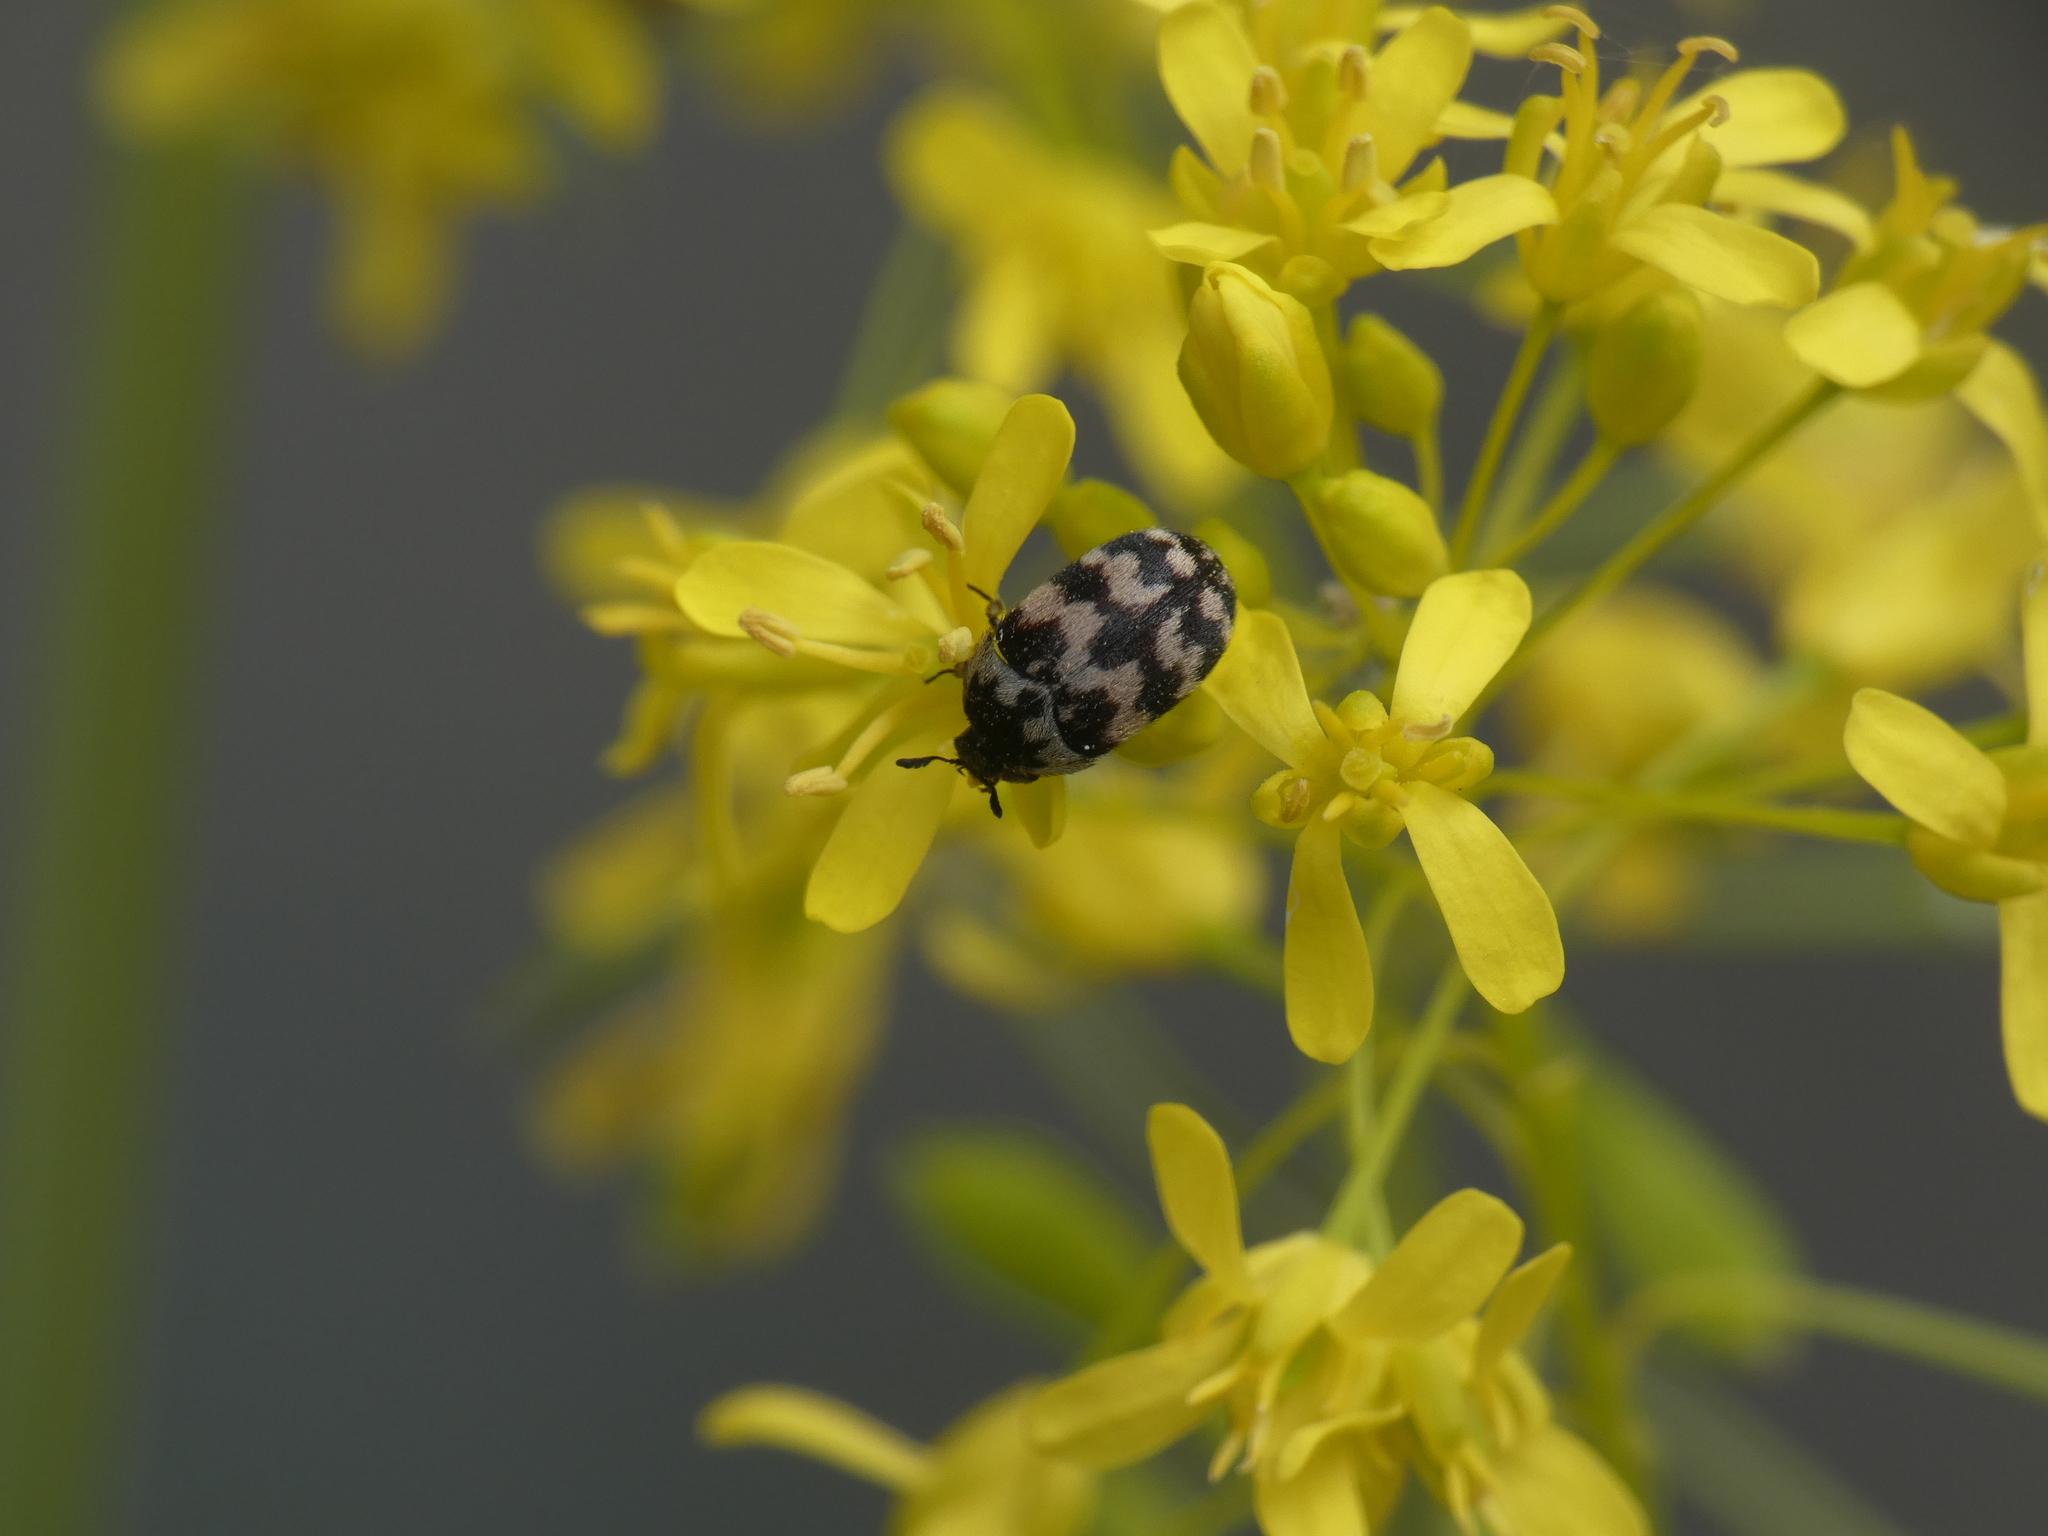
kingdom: Animalia
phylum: Arthropoda
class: Insecta
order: Coleoptera
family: Dermestidae
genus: Attagenus
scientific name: Attagenus trifasciatus
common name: Carpet beetle
